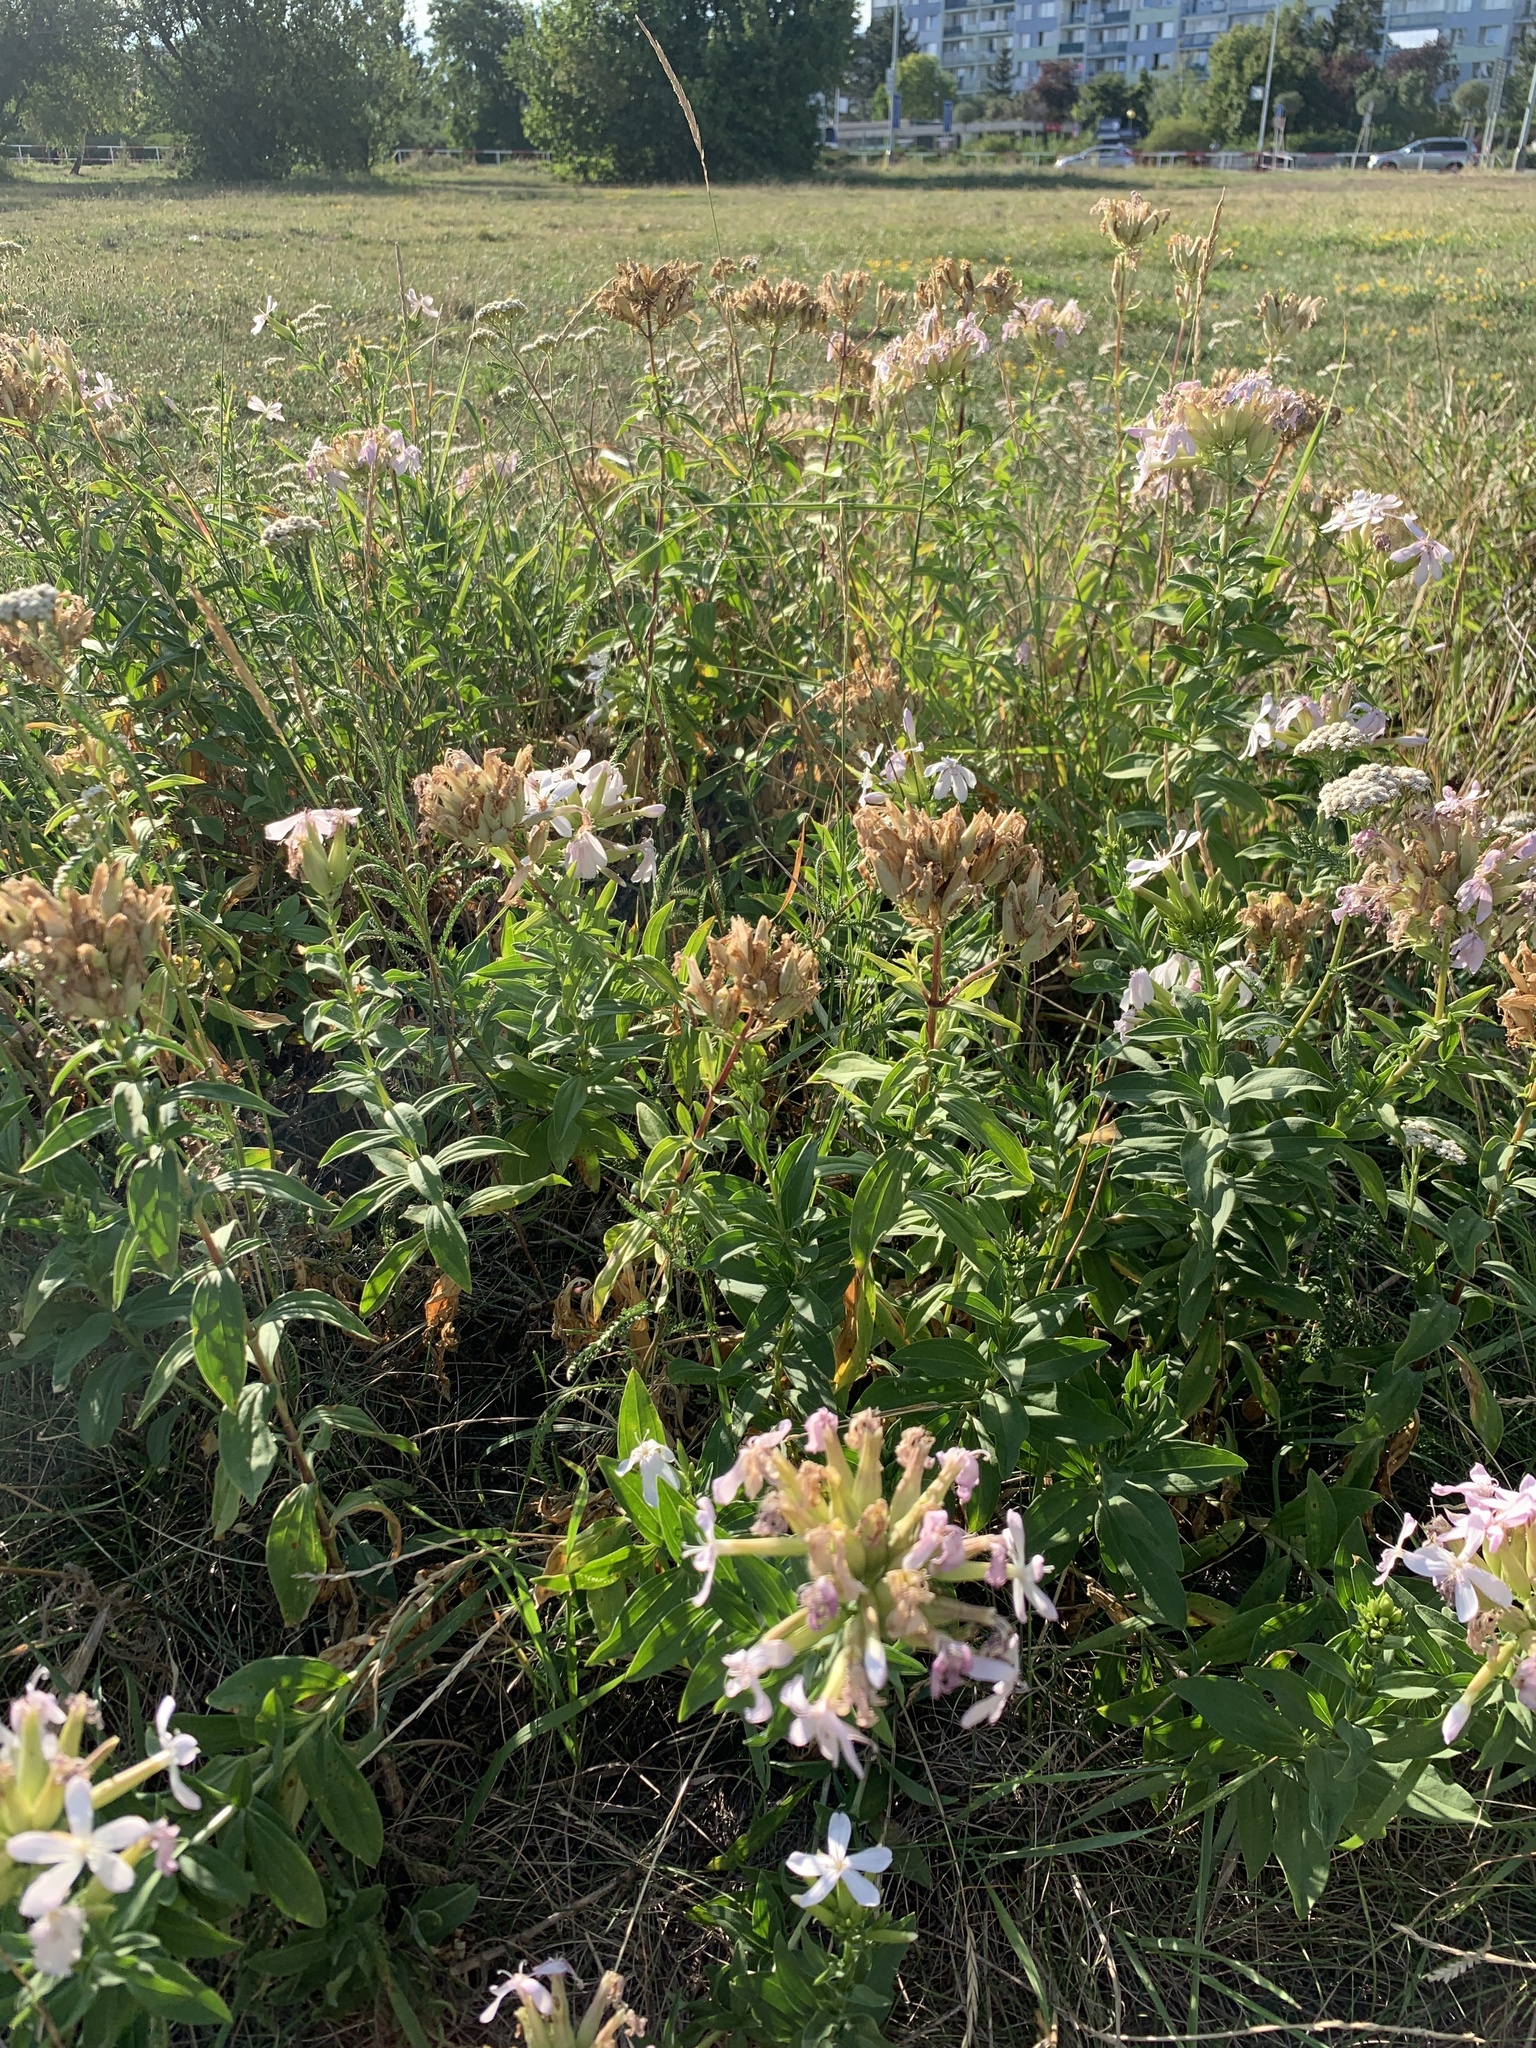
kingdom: Plantae
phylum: Tracheophyta
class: Magnoliopsida
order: Caryophyllales
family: Caryophyllaceae
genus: Saponaria
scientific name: Saponaria officinalis
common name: Soapwort
